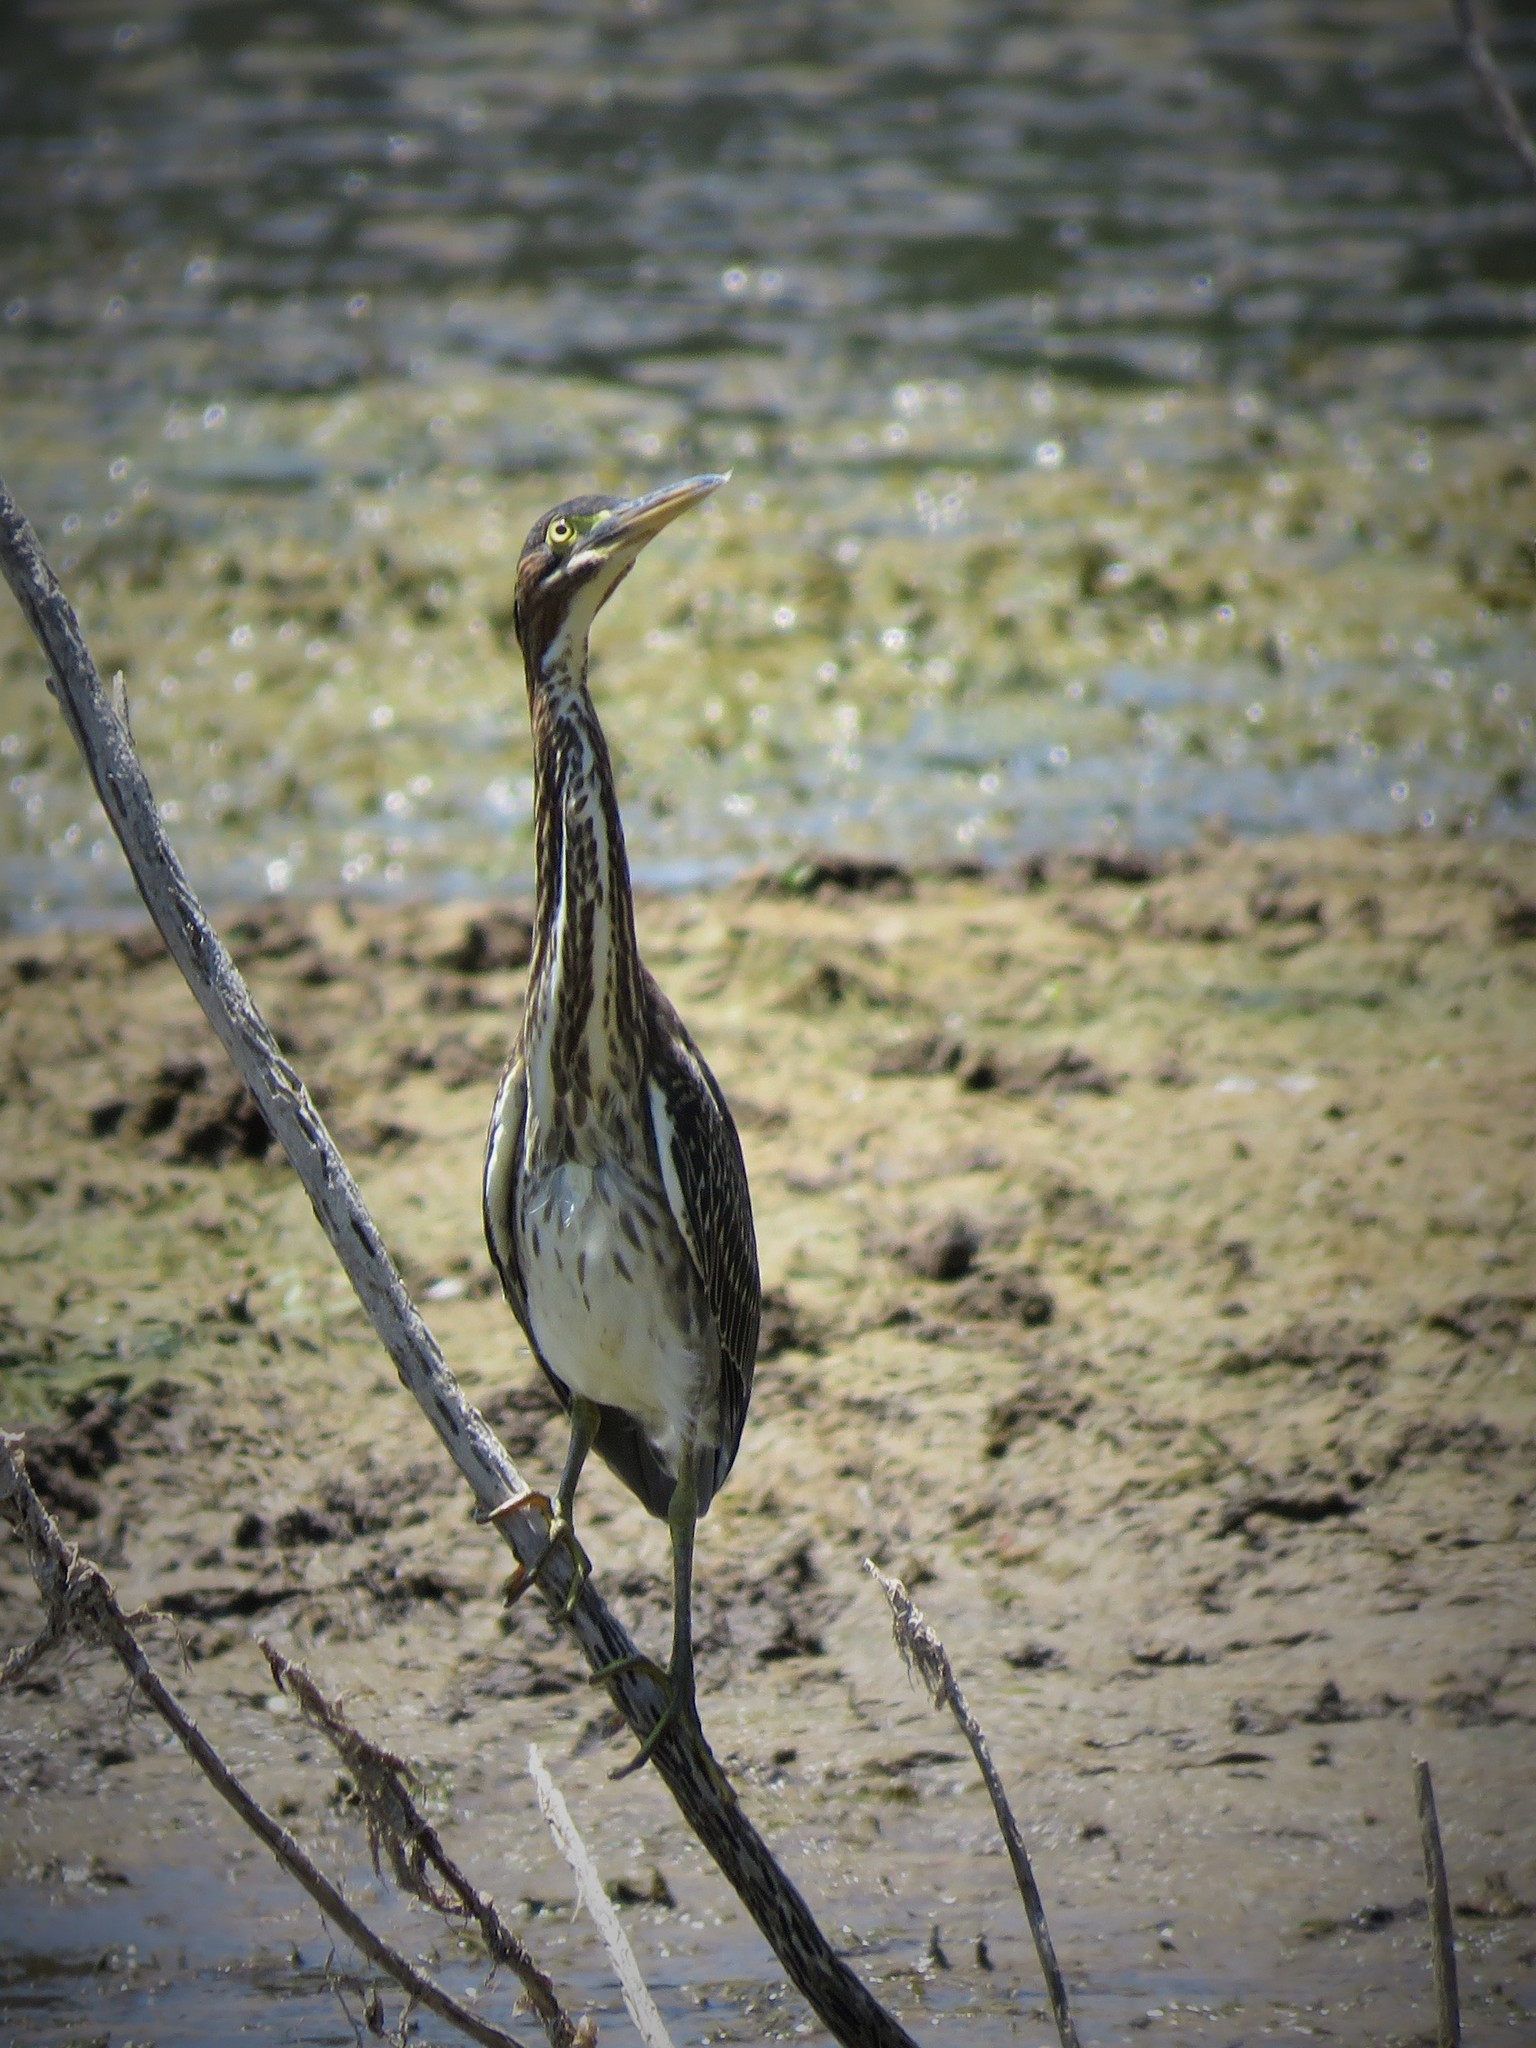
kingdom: Animalia
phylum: Chordata
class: Aves
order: Pelecaniformes
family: Ardeidae
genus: Butorides
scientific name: Butorides virescens
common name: Green heron
